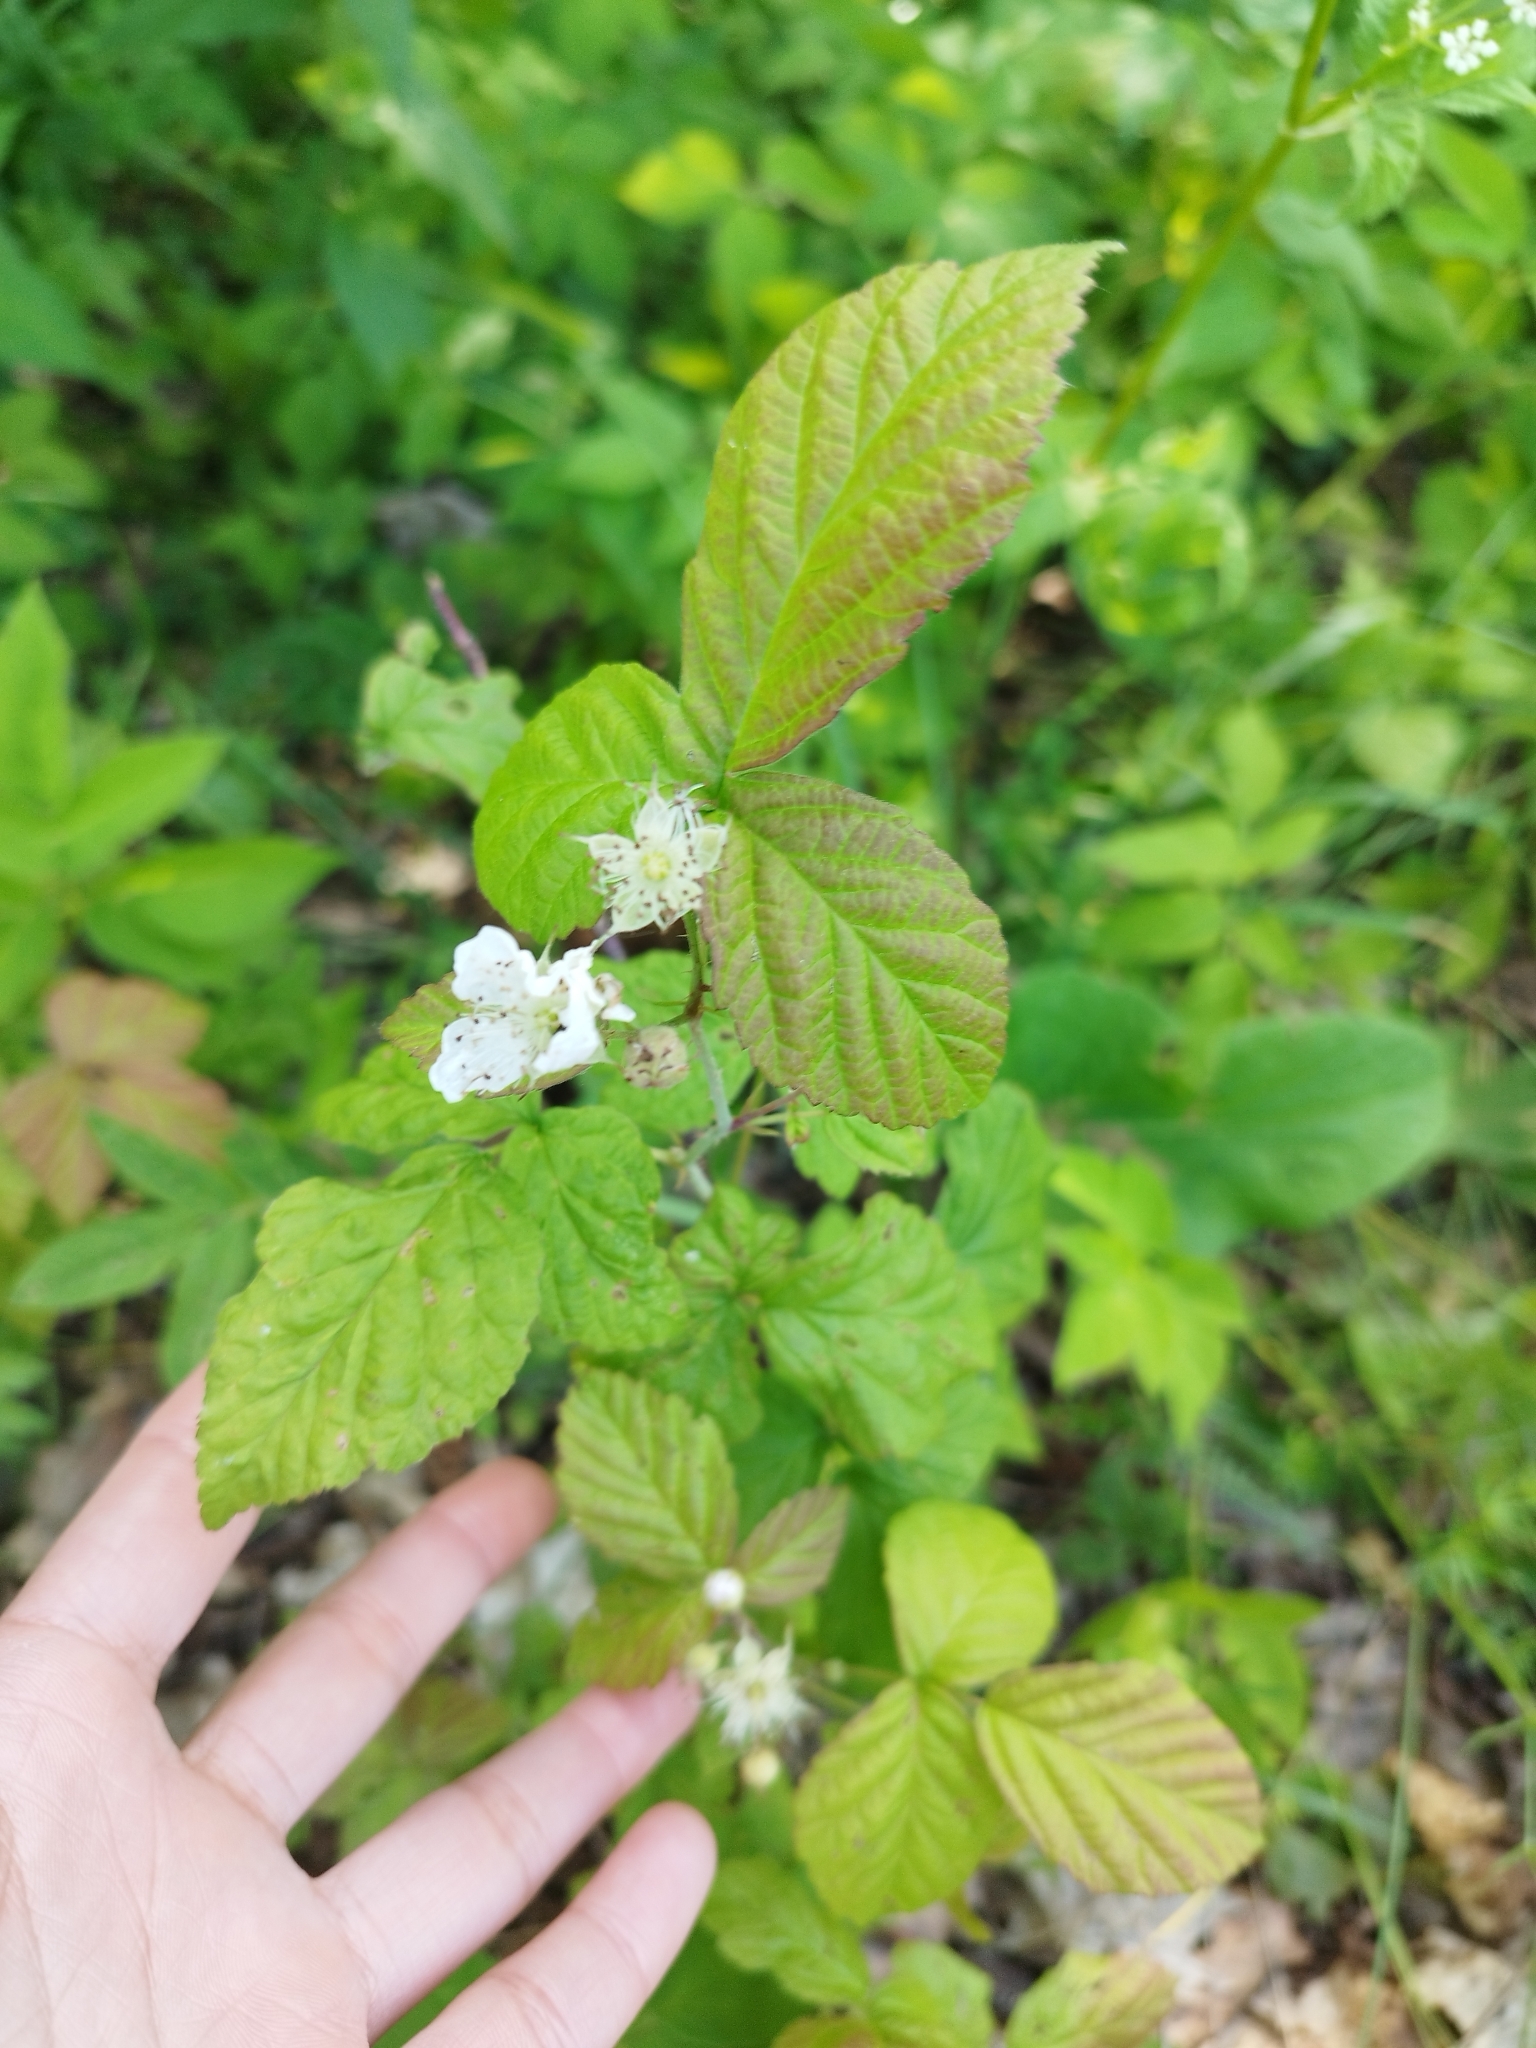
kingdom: Plantae
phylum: Tracheophyta
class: Magnoliopsida
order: Rosales
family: Rosaceae
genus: Rubus
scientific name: Rubus caesius
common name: Dewberry
